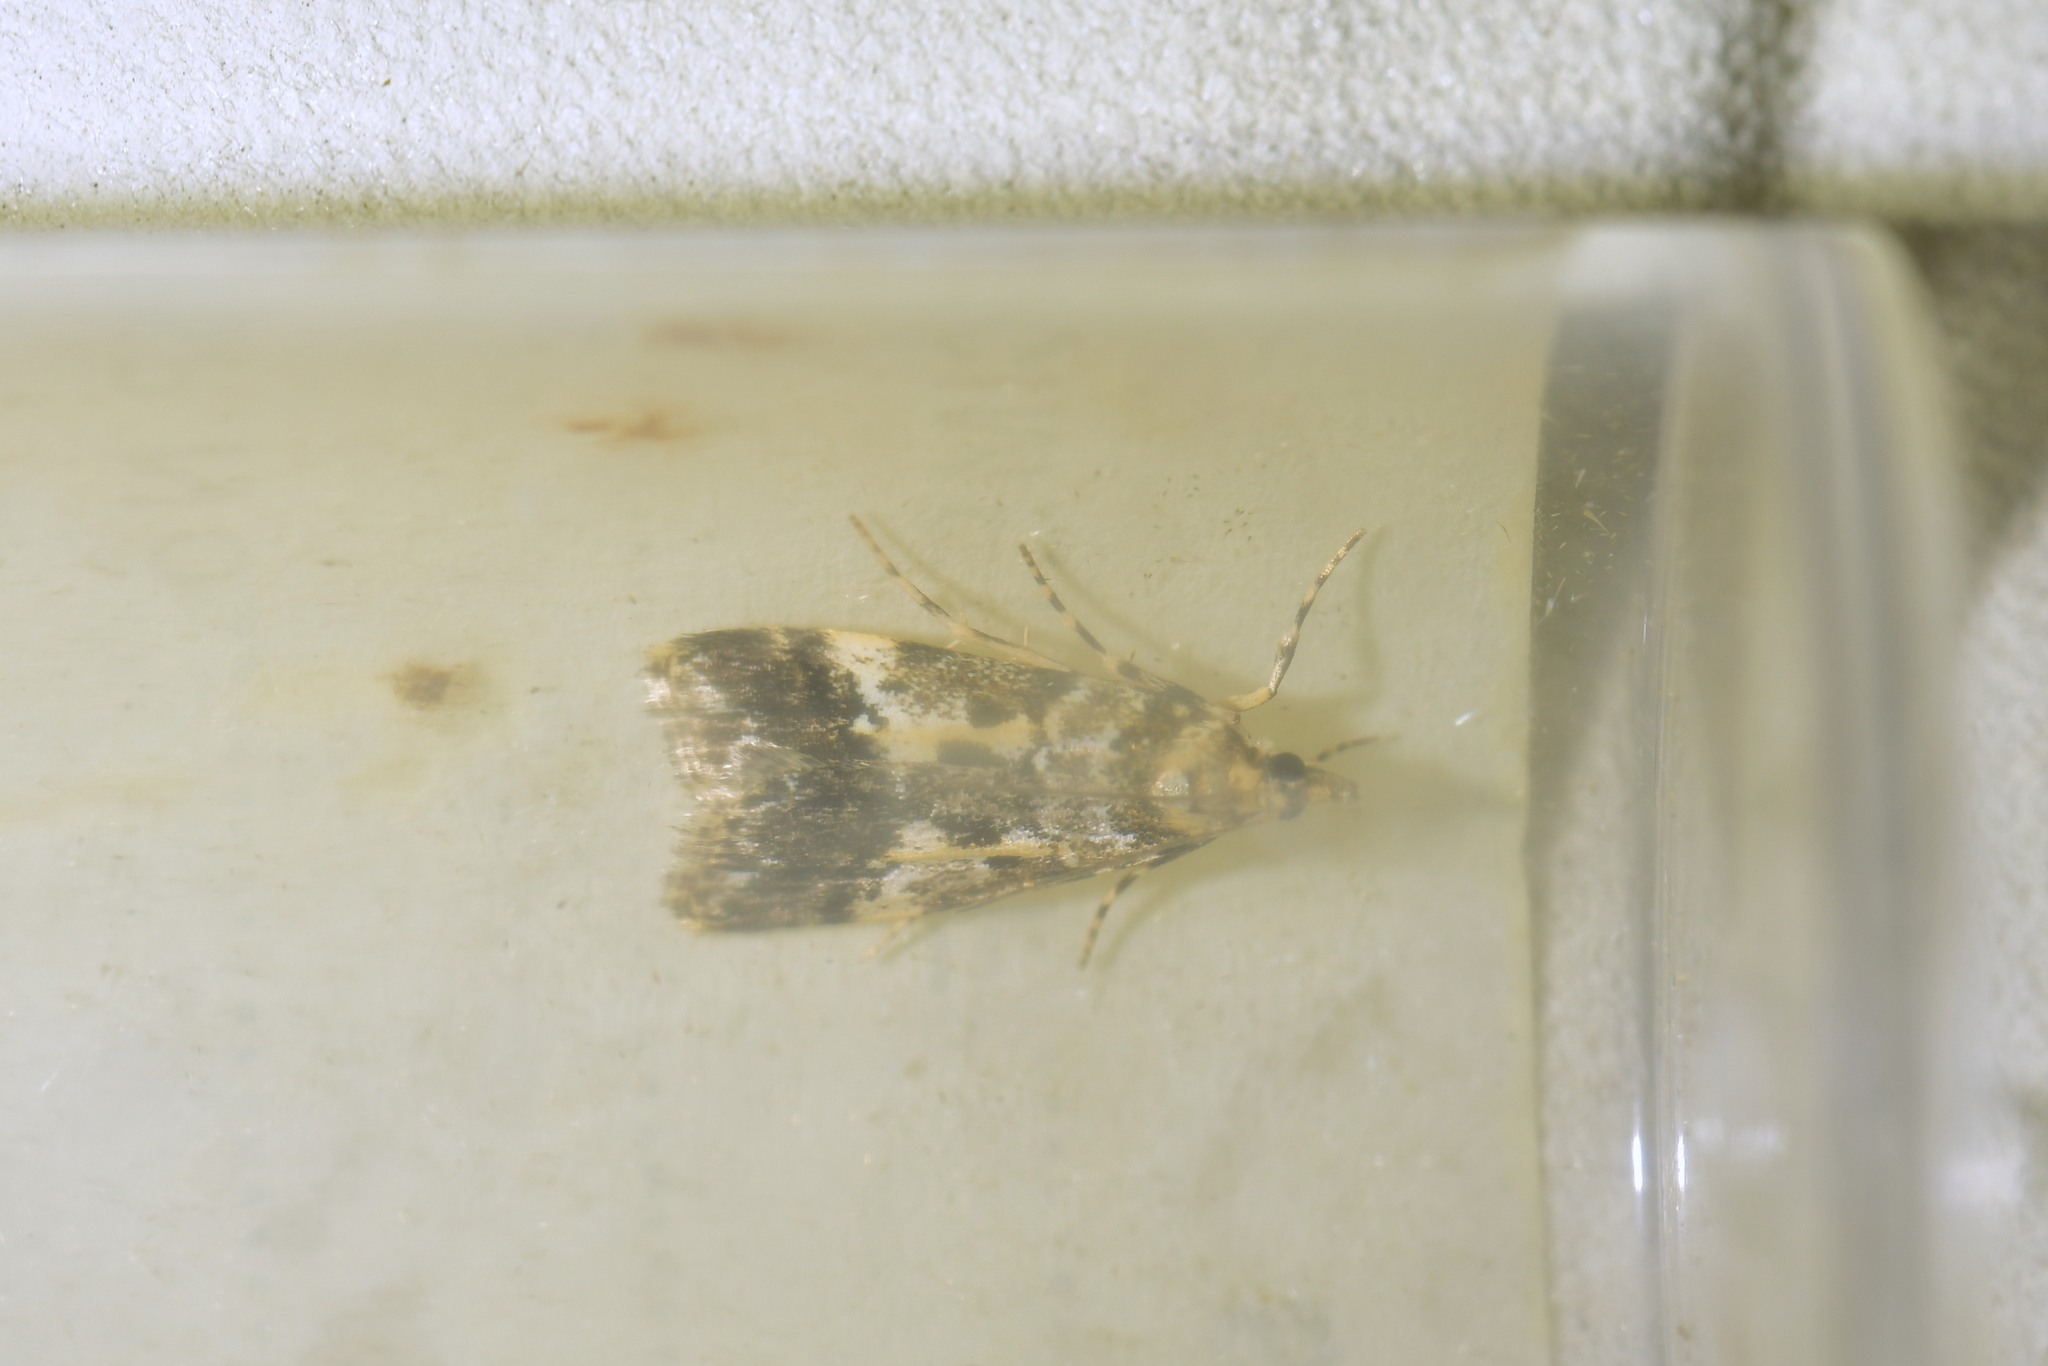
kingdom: Animalia
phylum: Arthropoda
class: Insecta
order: Lepidoptera
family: Crambidae
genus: Eudonia
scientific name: Eudonia characta
